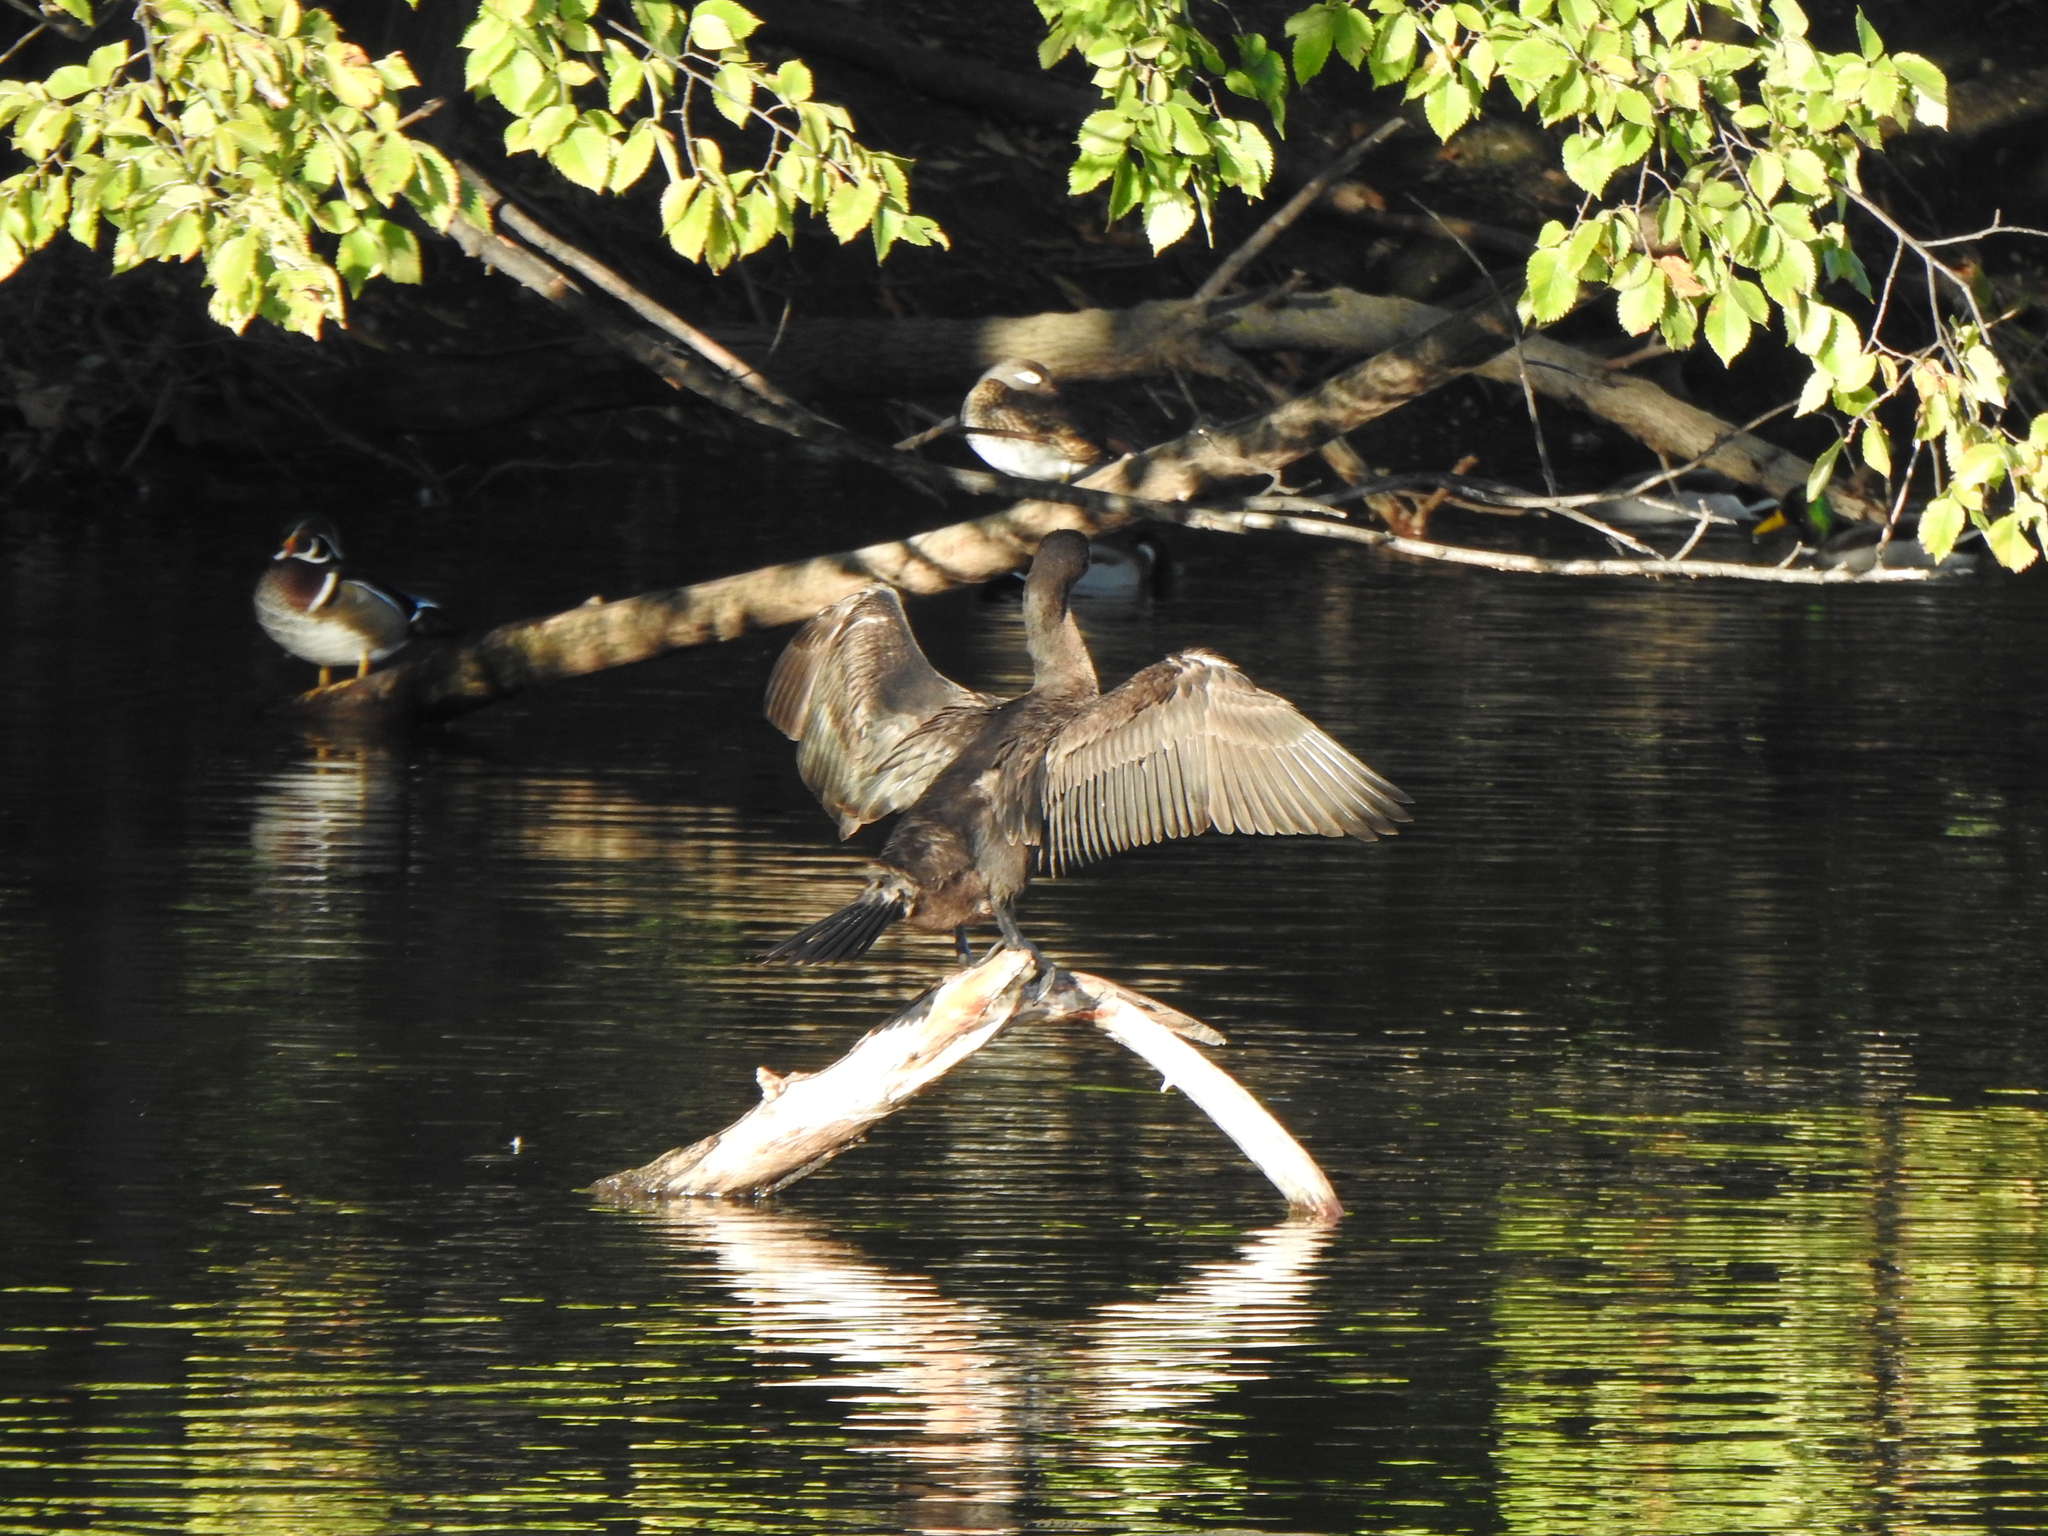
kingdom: Animalia
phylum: Chordata
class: Aves
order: Suliformes
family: Phalacrocoracidae
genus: Phalacrocorax
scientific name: Phalacrocorax auritus
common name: Double-crested cormorant
